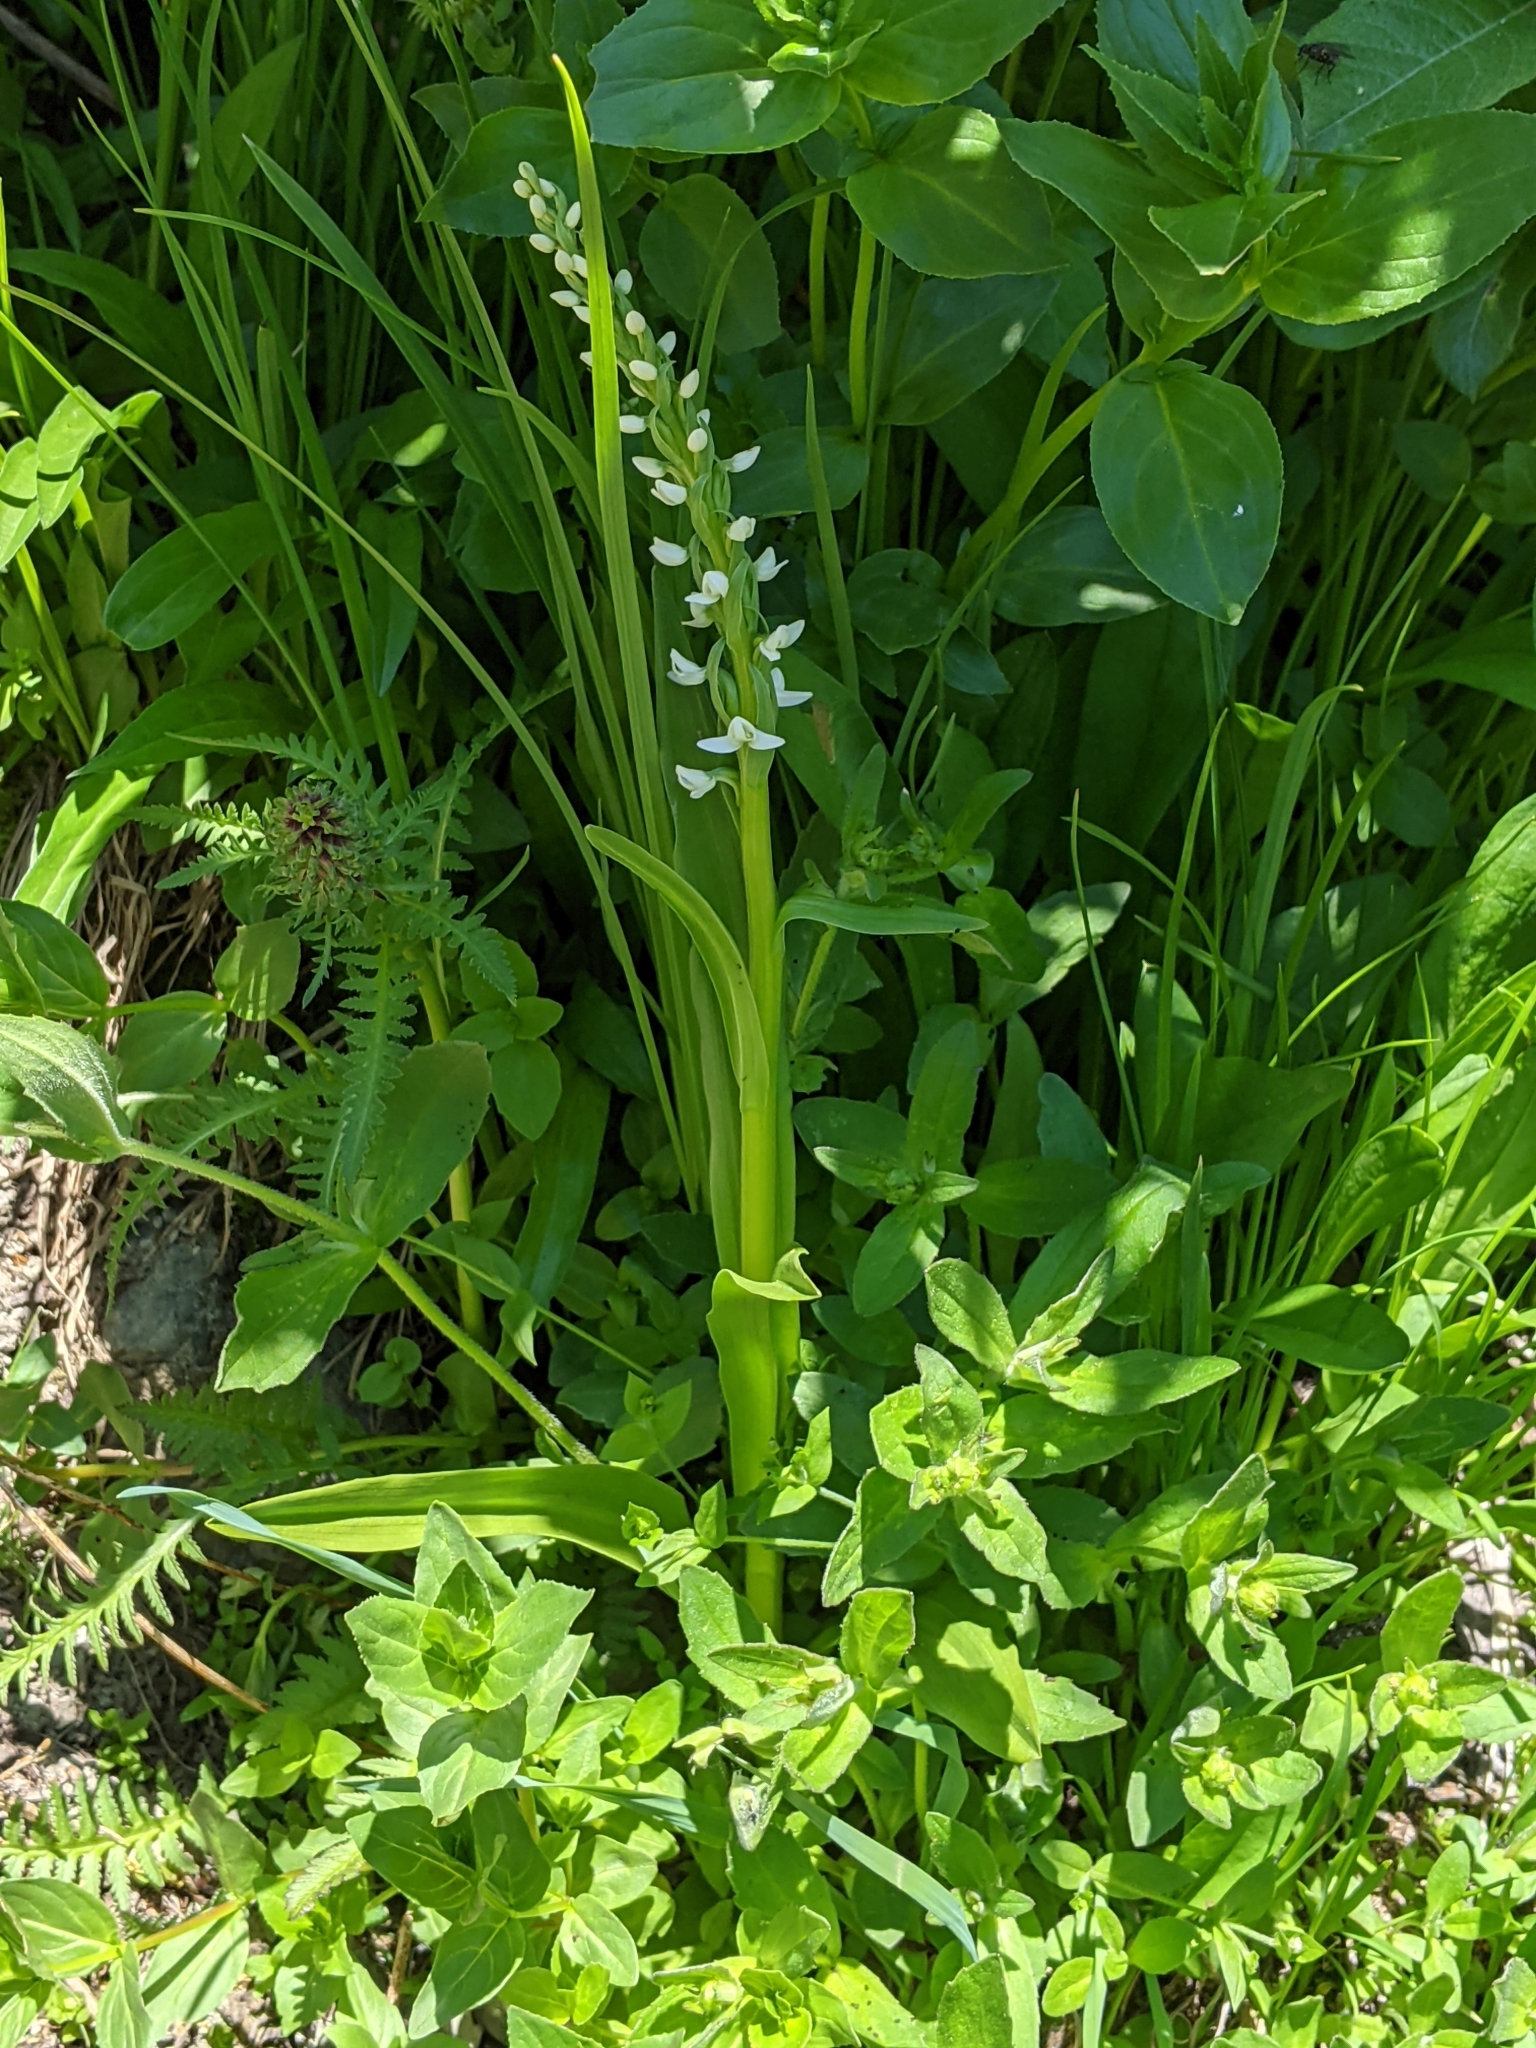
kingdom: Plantae
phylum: Tracheophyta
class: Liliopsida
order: Asparagales
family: Orchidaceae
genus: Platanthera
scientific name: Platanthera dilatata
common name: Bog candles
